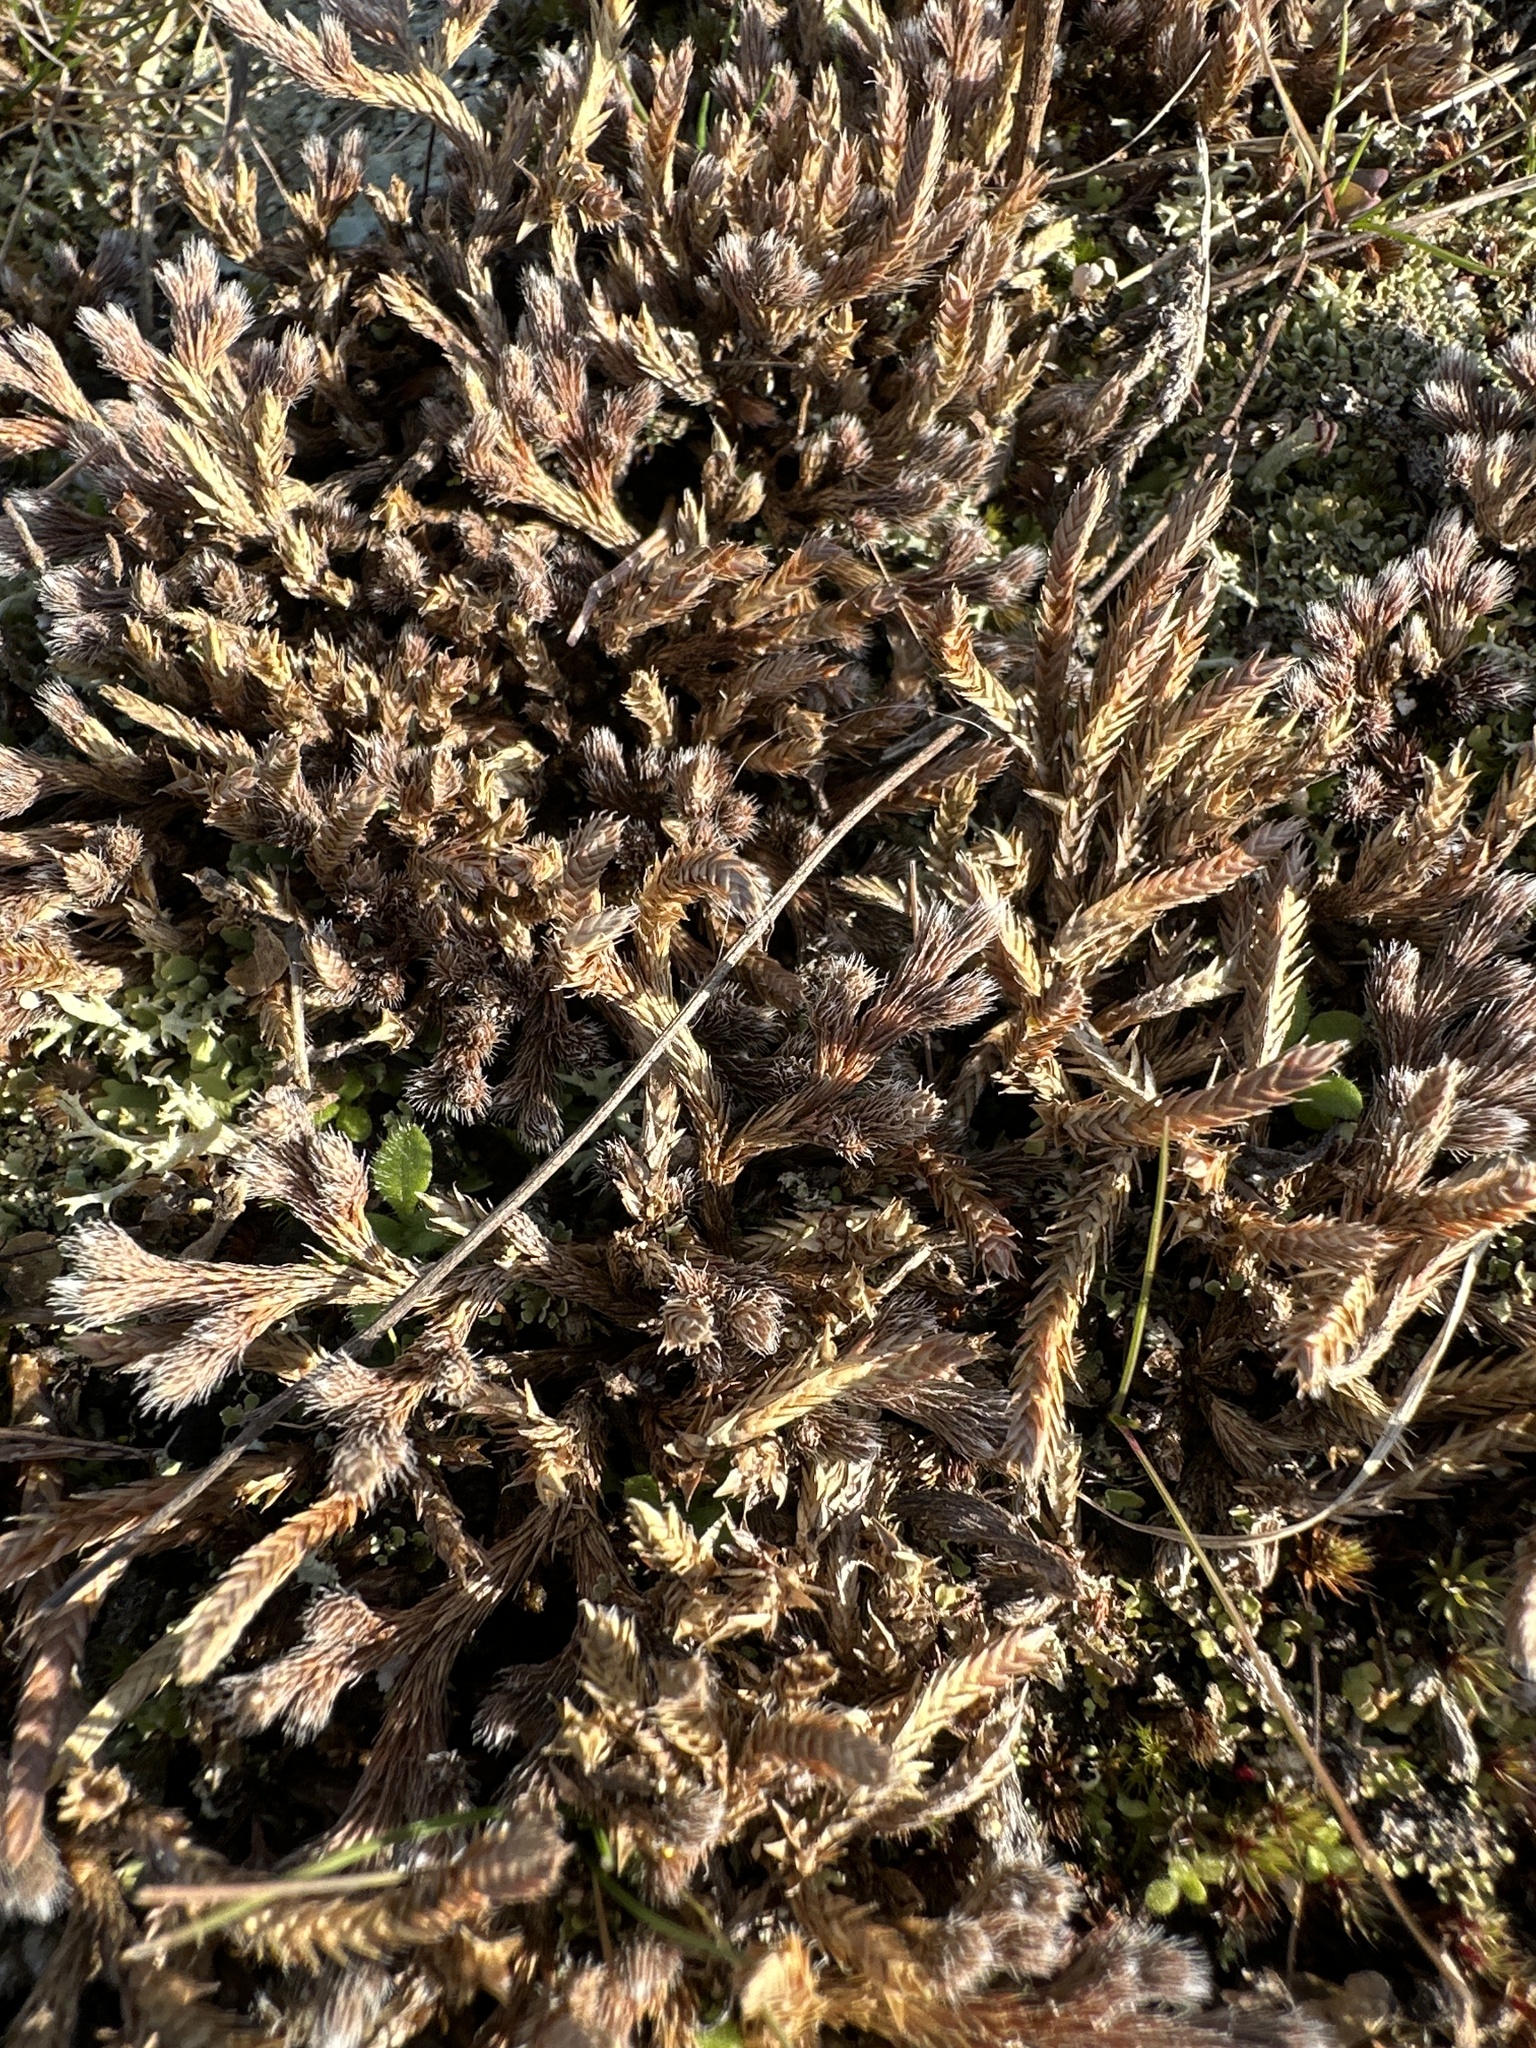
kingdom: Plantae
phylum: Tracheophyta
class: Lycopodiopsida
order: Selaginellales
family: Selaginellaceae
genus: Selaginella
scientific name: Selaginella rupestris
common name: Dwarf spikemoss
